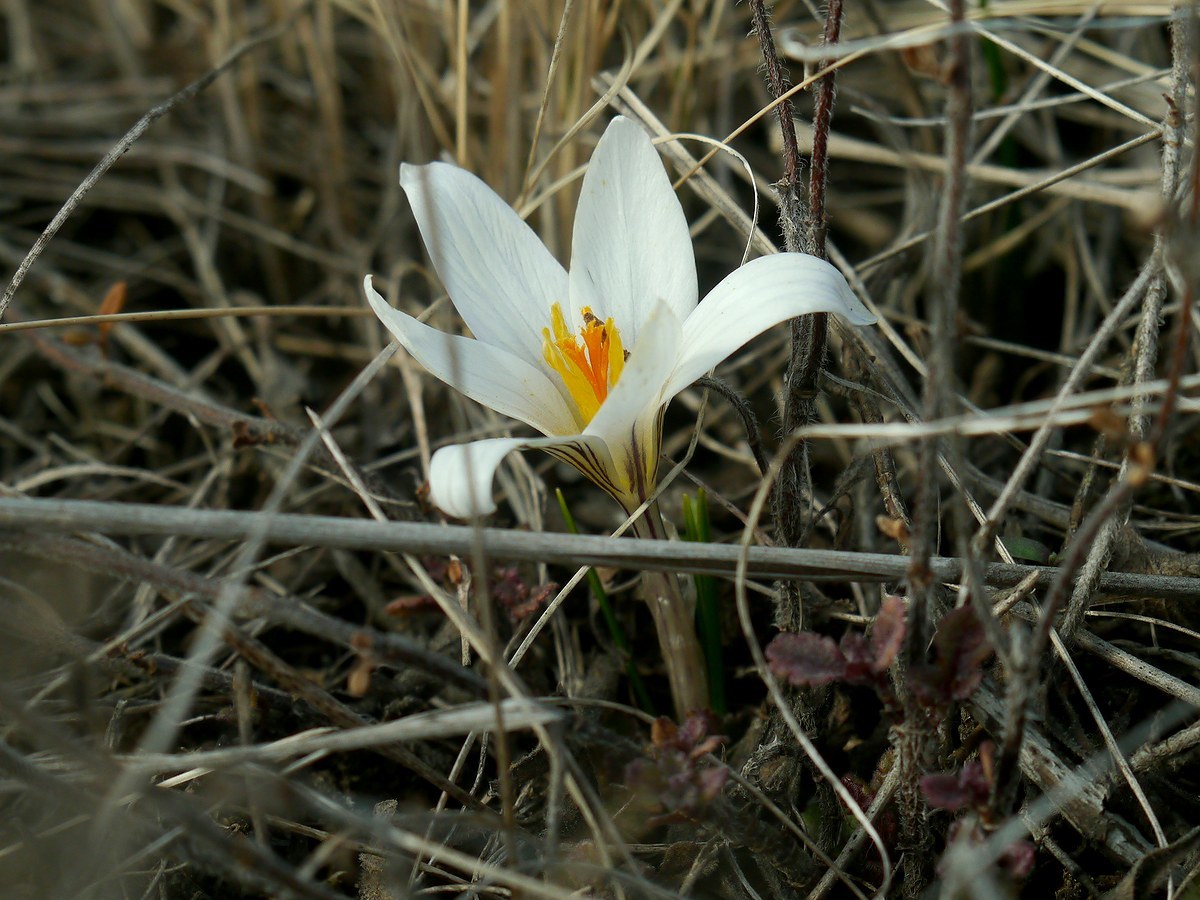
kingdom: Plantae
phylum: Tracheophyta
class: Liliopsida
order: Asparagales
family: Iridaceae
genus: Crocus
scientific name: Crocus reticulatus
